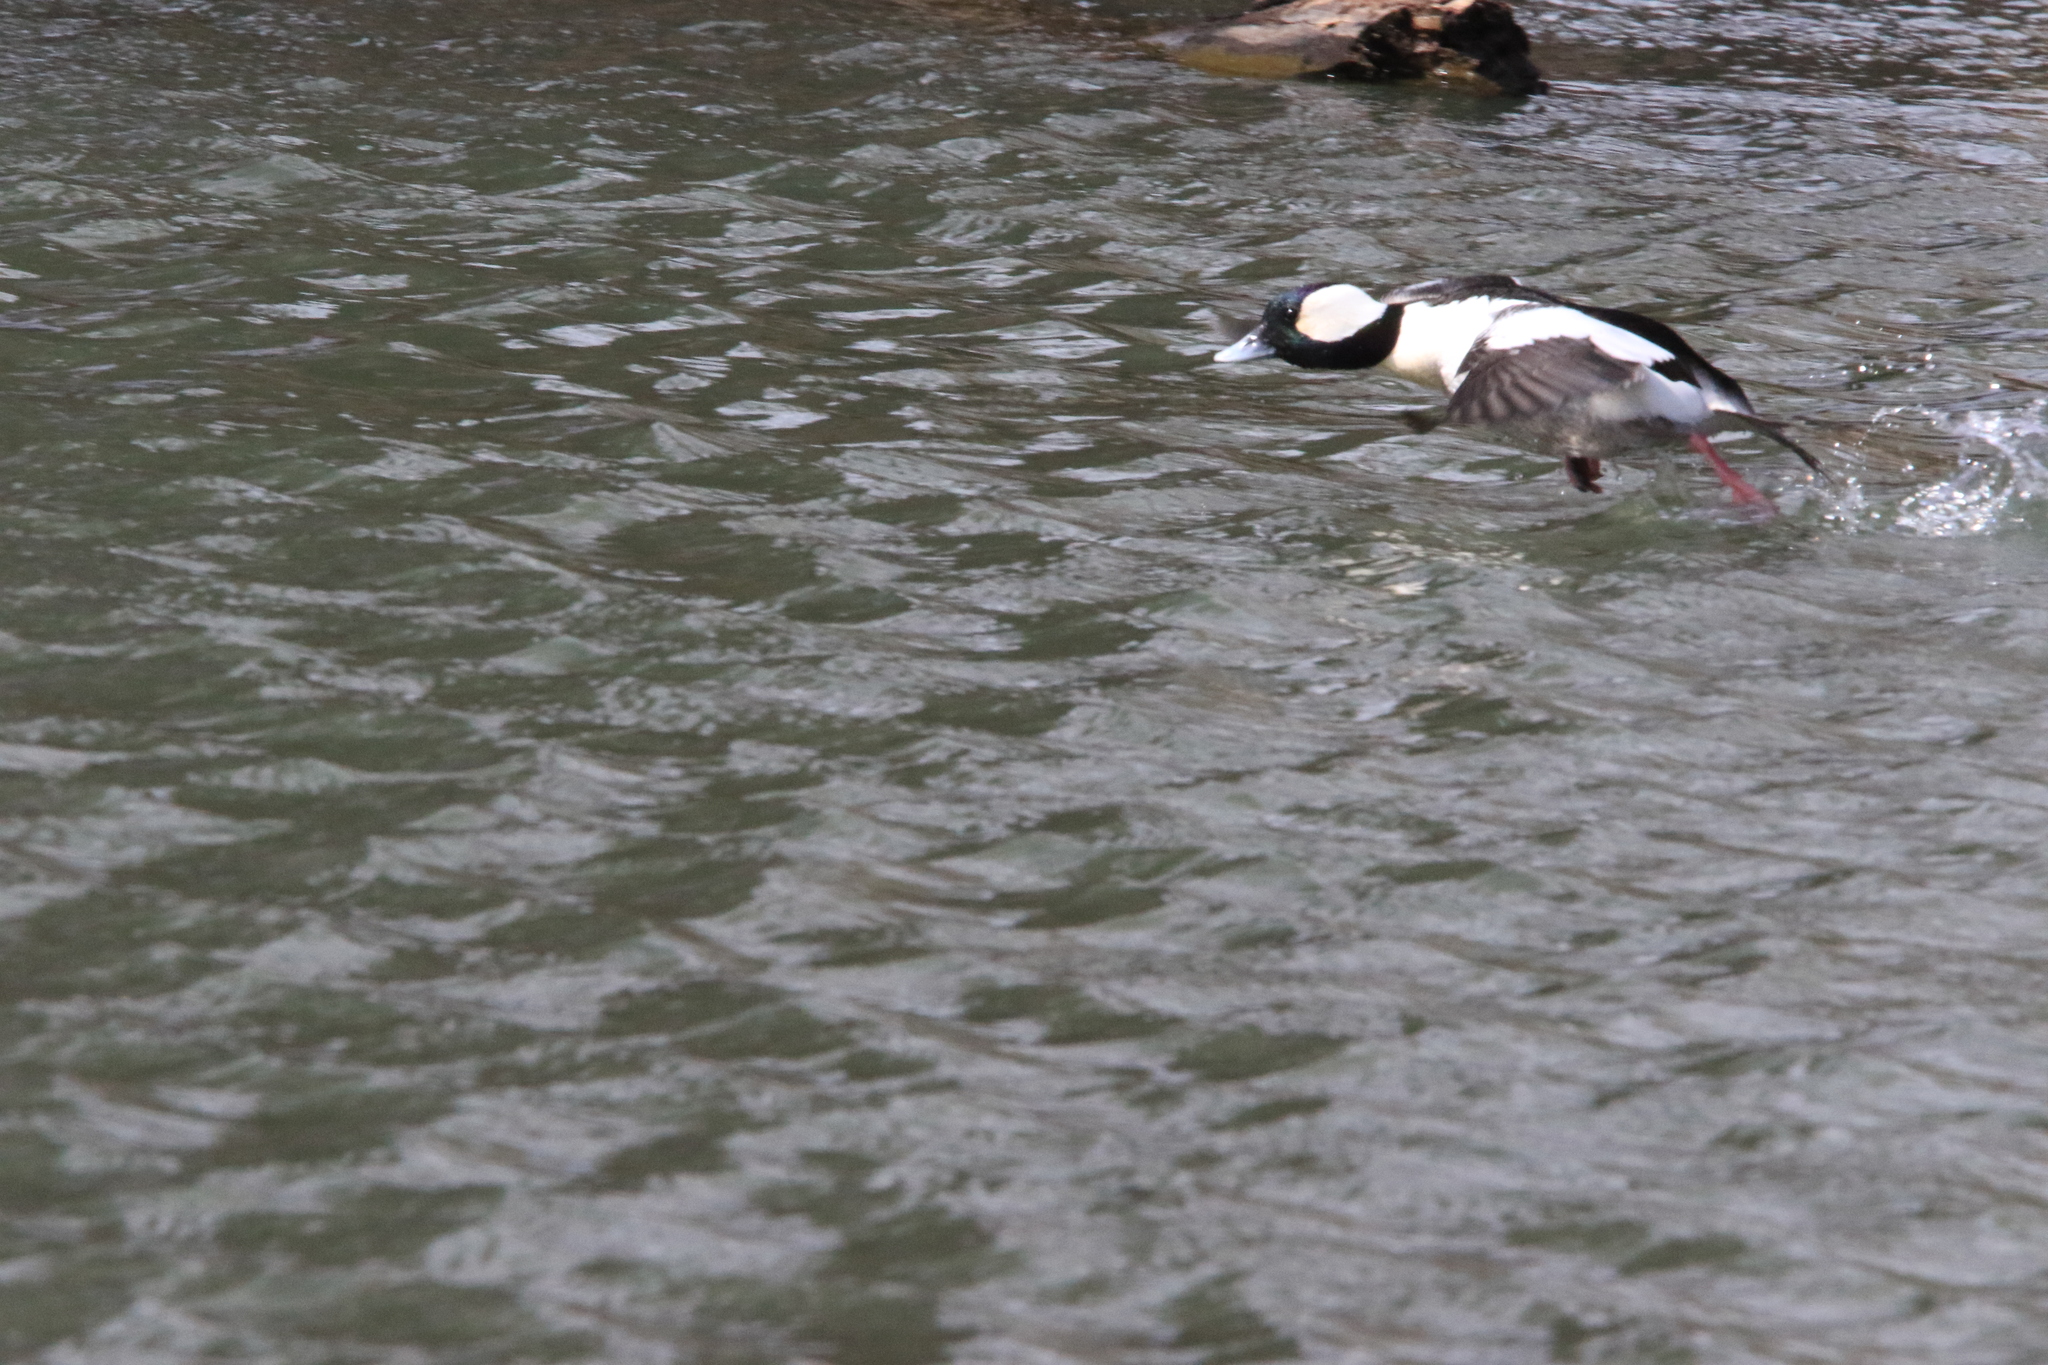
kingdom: Animalia
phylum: Chordata
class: Aves
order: Anseriformes
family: Anatidae
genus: Bucephala
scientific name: Bucephala albeola
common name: Bufflehead
